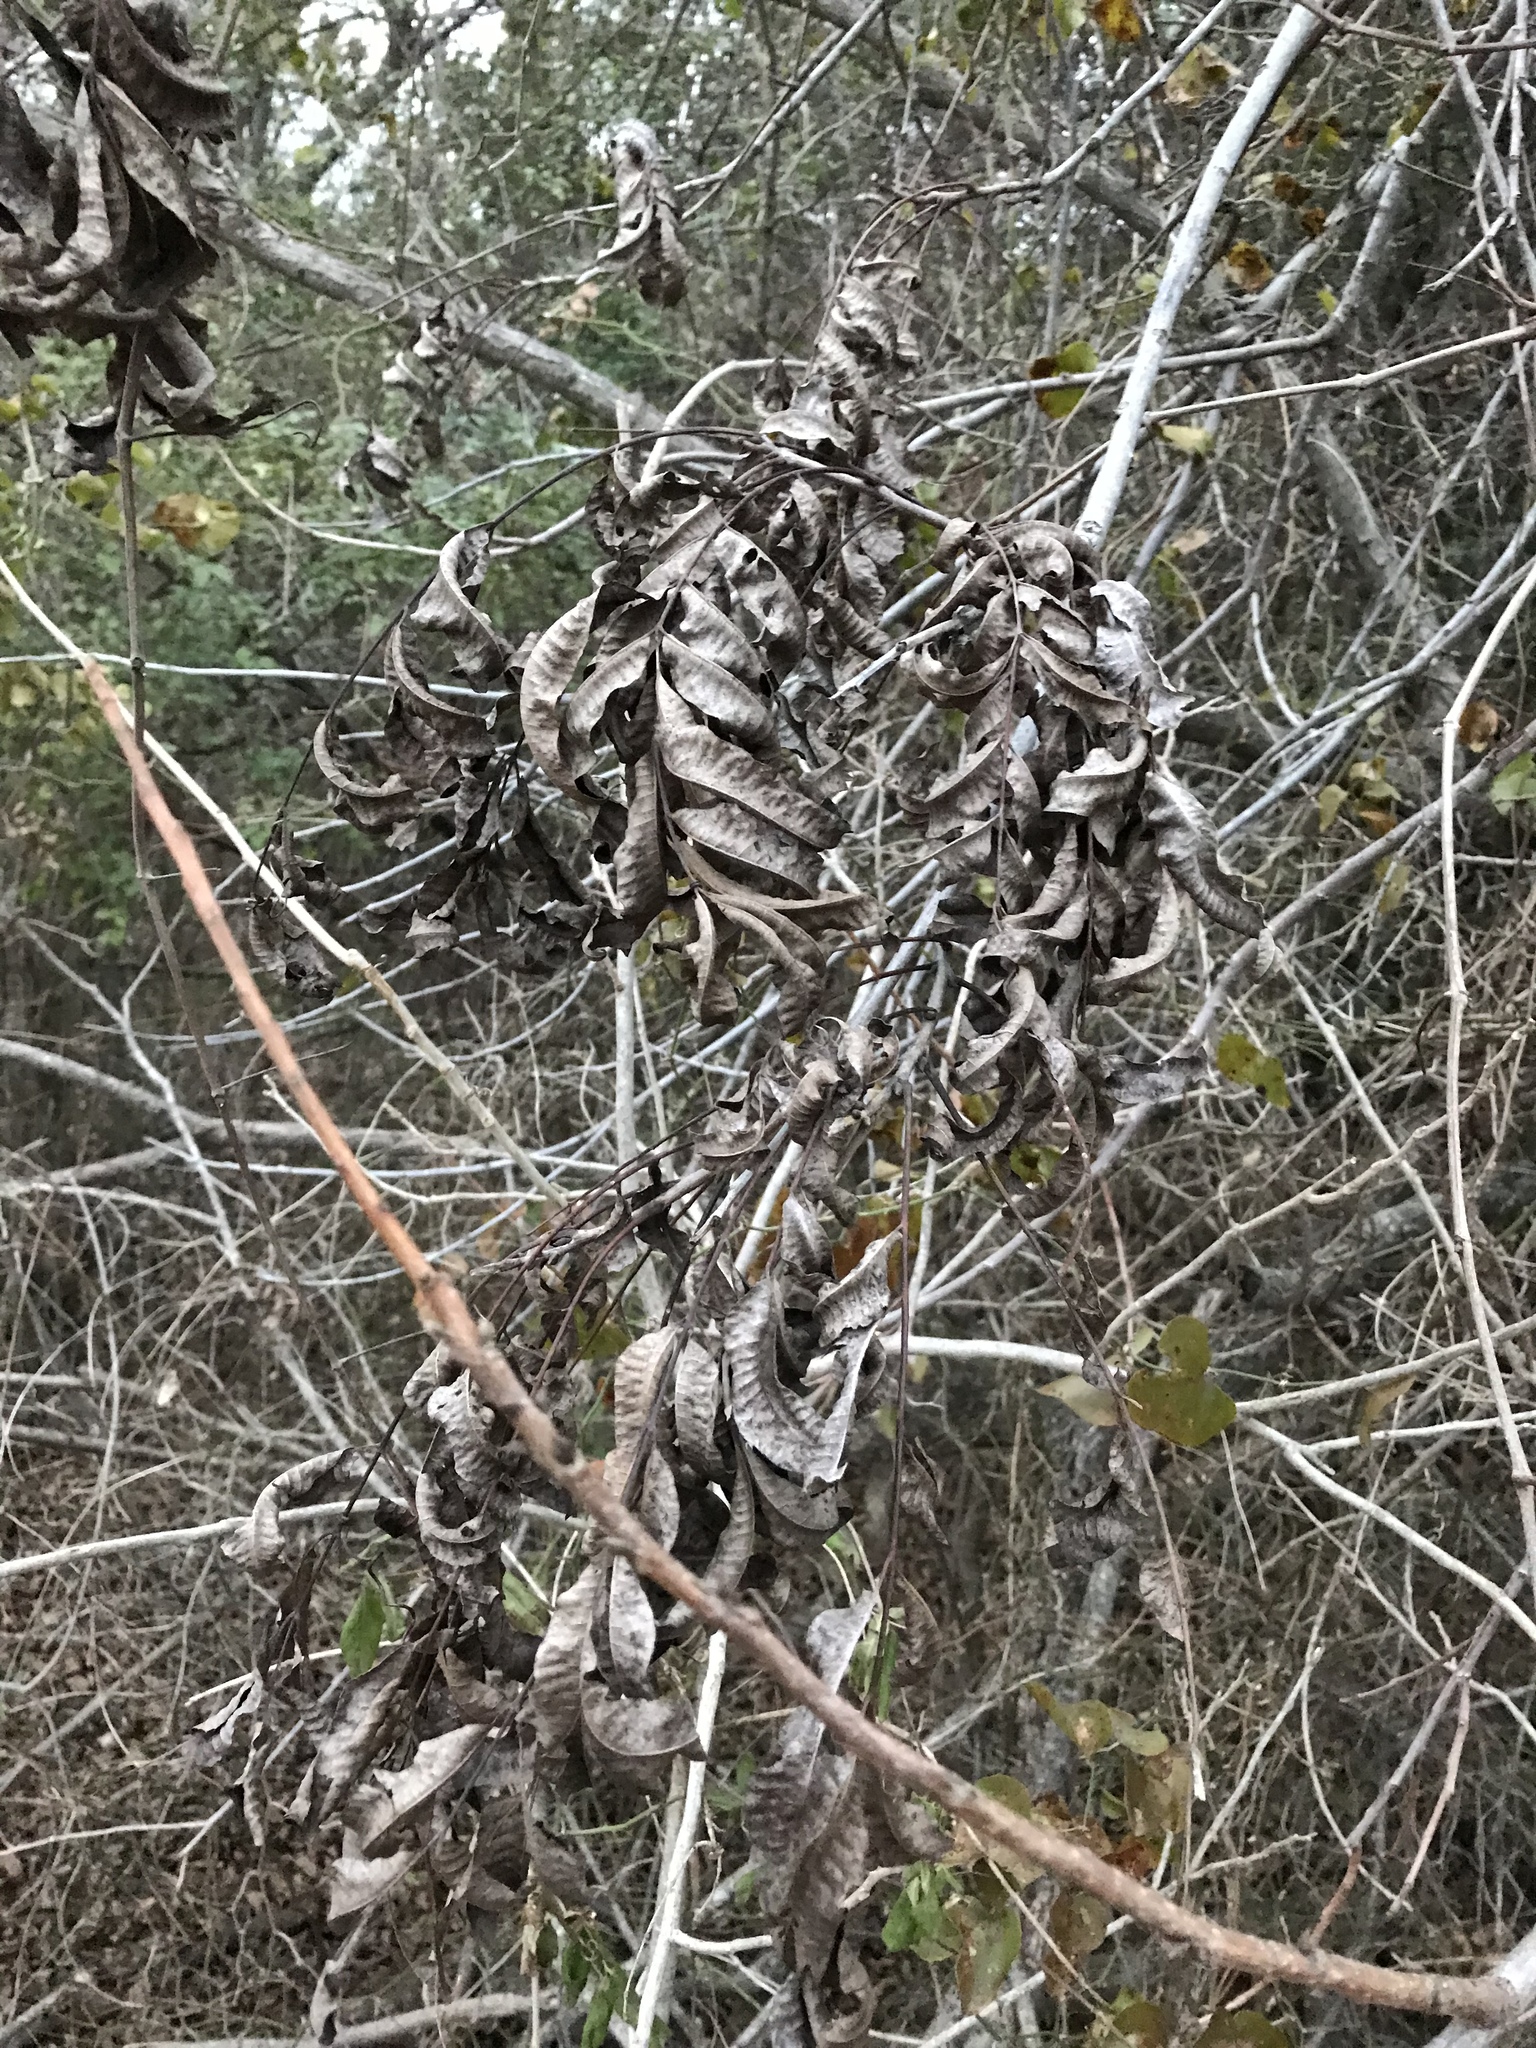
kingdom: Plantae
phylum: Tracheophyta
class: Magnoliopsida
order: Fagales
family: Juglandaceae
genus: Carya
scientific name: Carya illinoinensis
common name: Pecan
